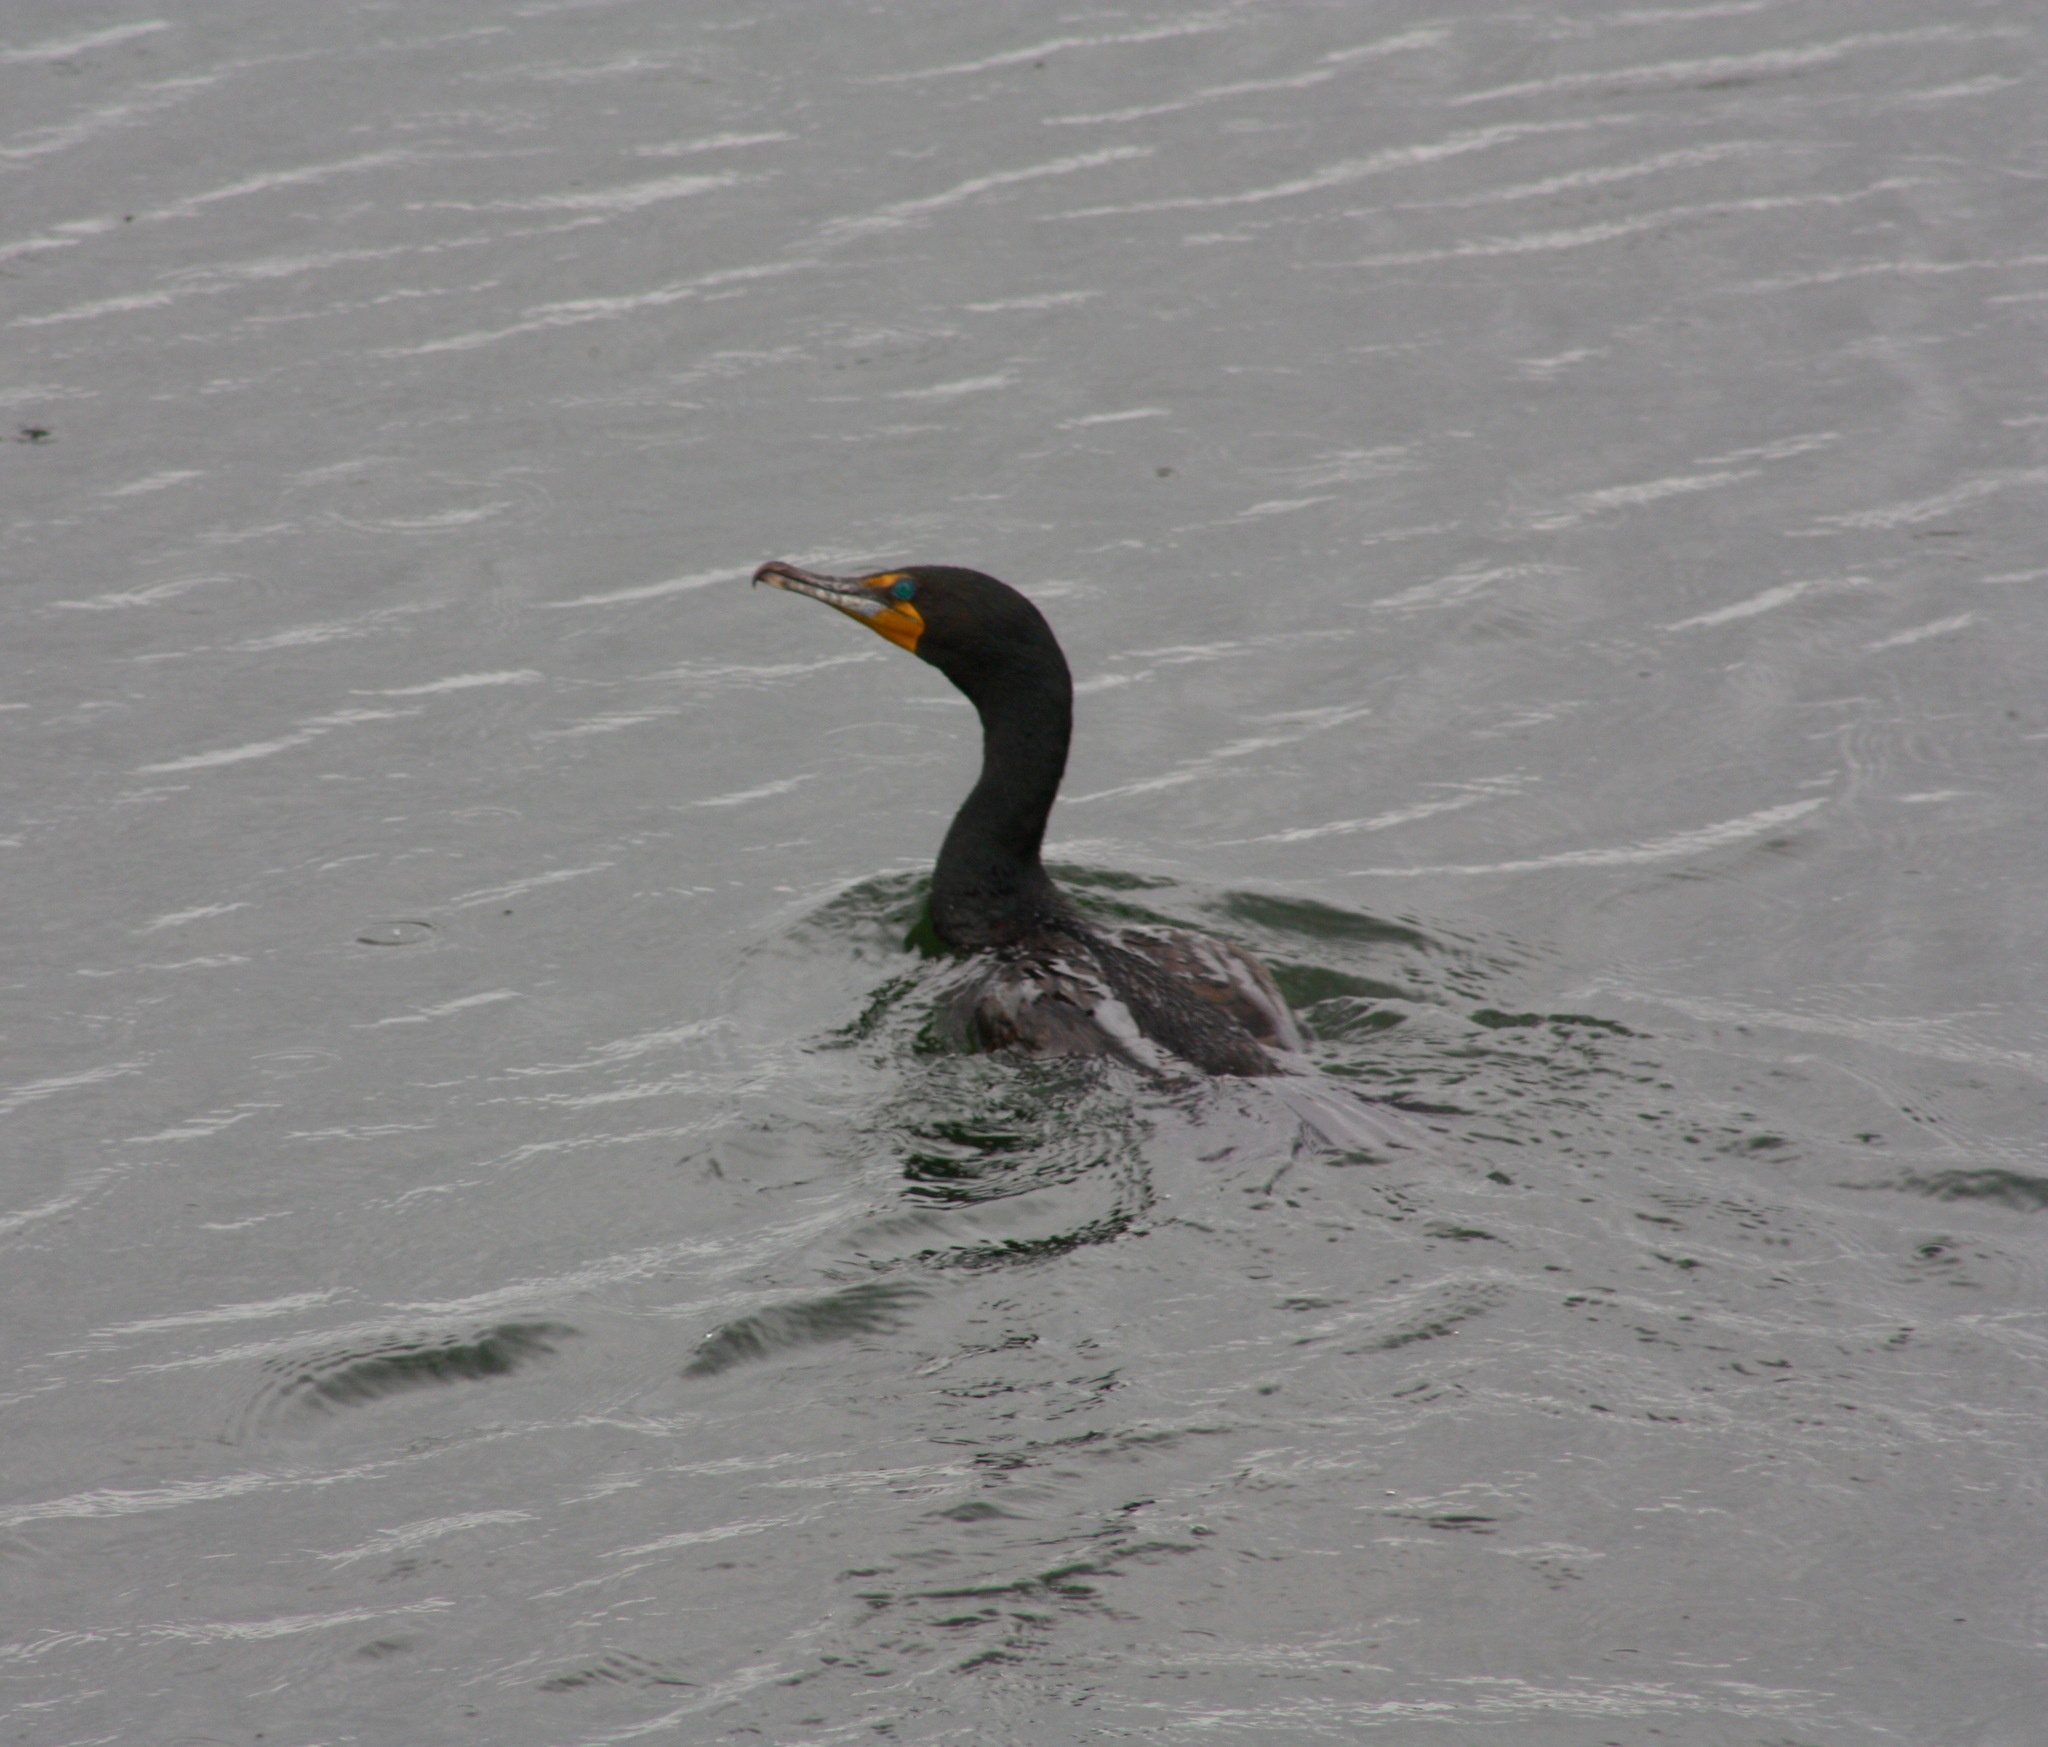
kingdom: Animalia
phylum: Chordata
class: Aves
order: Suliformes
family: Phalacrocoracidae
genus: Phalacrocorax
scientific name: Phalacrocorax auritus
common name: Double-crested cormorant
